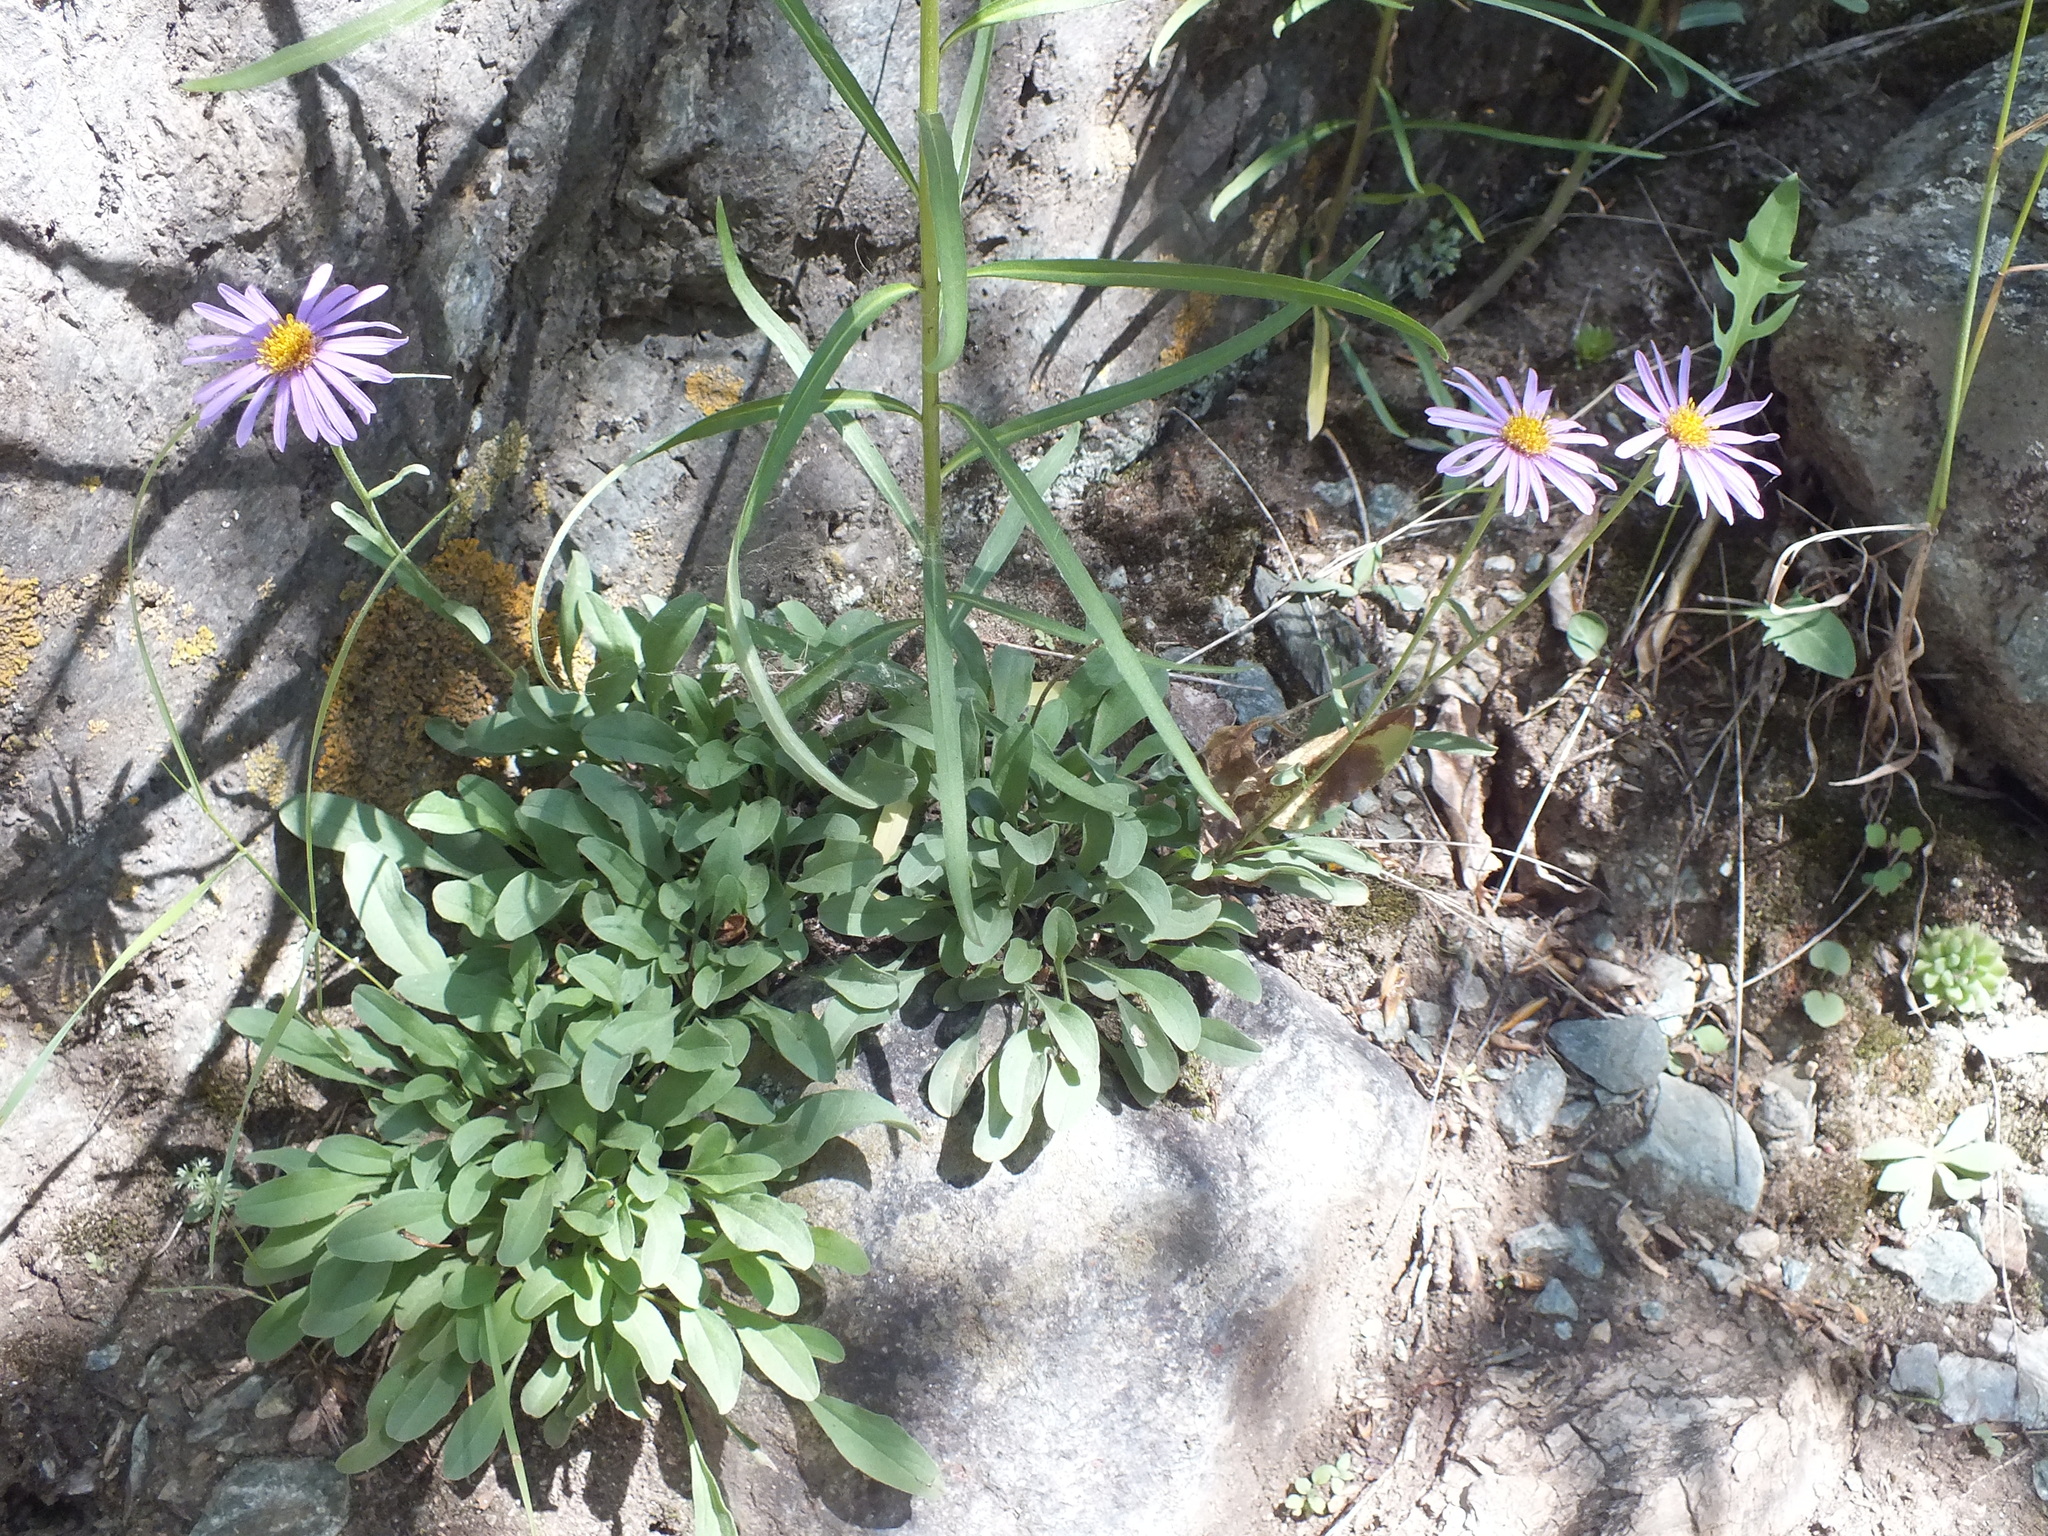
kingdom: Plantae
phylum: Tracheophyta
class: Magnoliopsida
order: Asterales
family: Asteraceae
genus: Aster
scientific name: Aster alpinus
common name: Alpine aster
